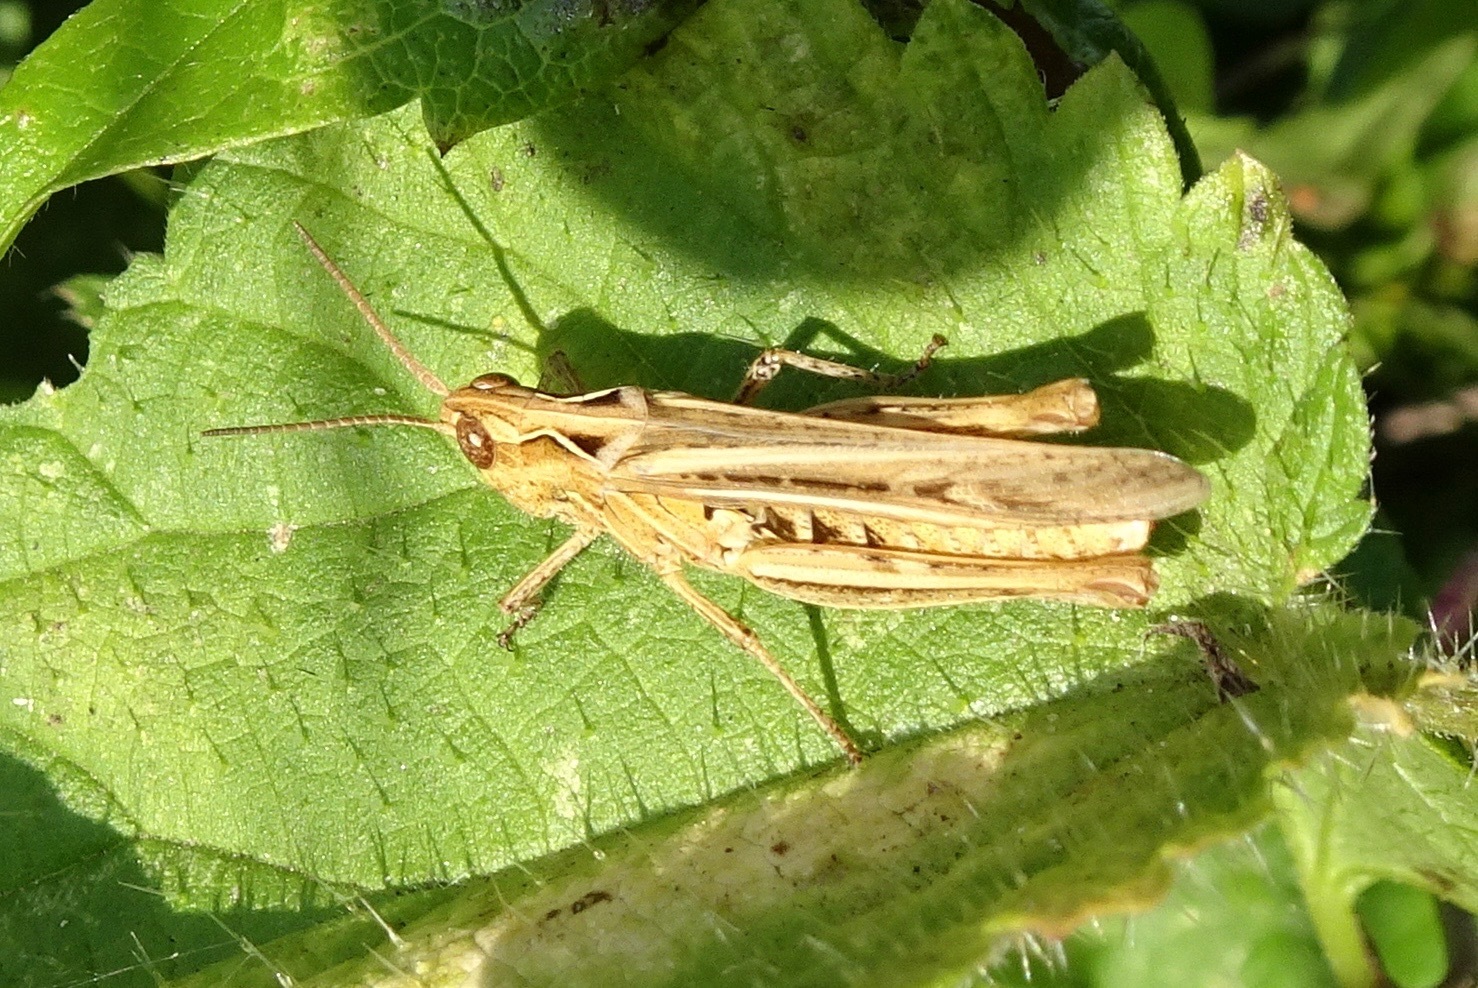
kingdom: Animalia
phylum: Arthropoda
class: Insecta
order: Orthoptera
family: Acrididae
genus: Chorthippus
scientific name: Chorthippus brunneus
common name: Field grasshopper
